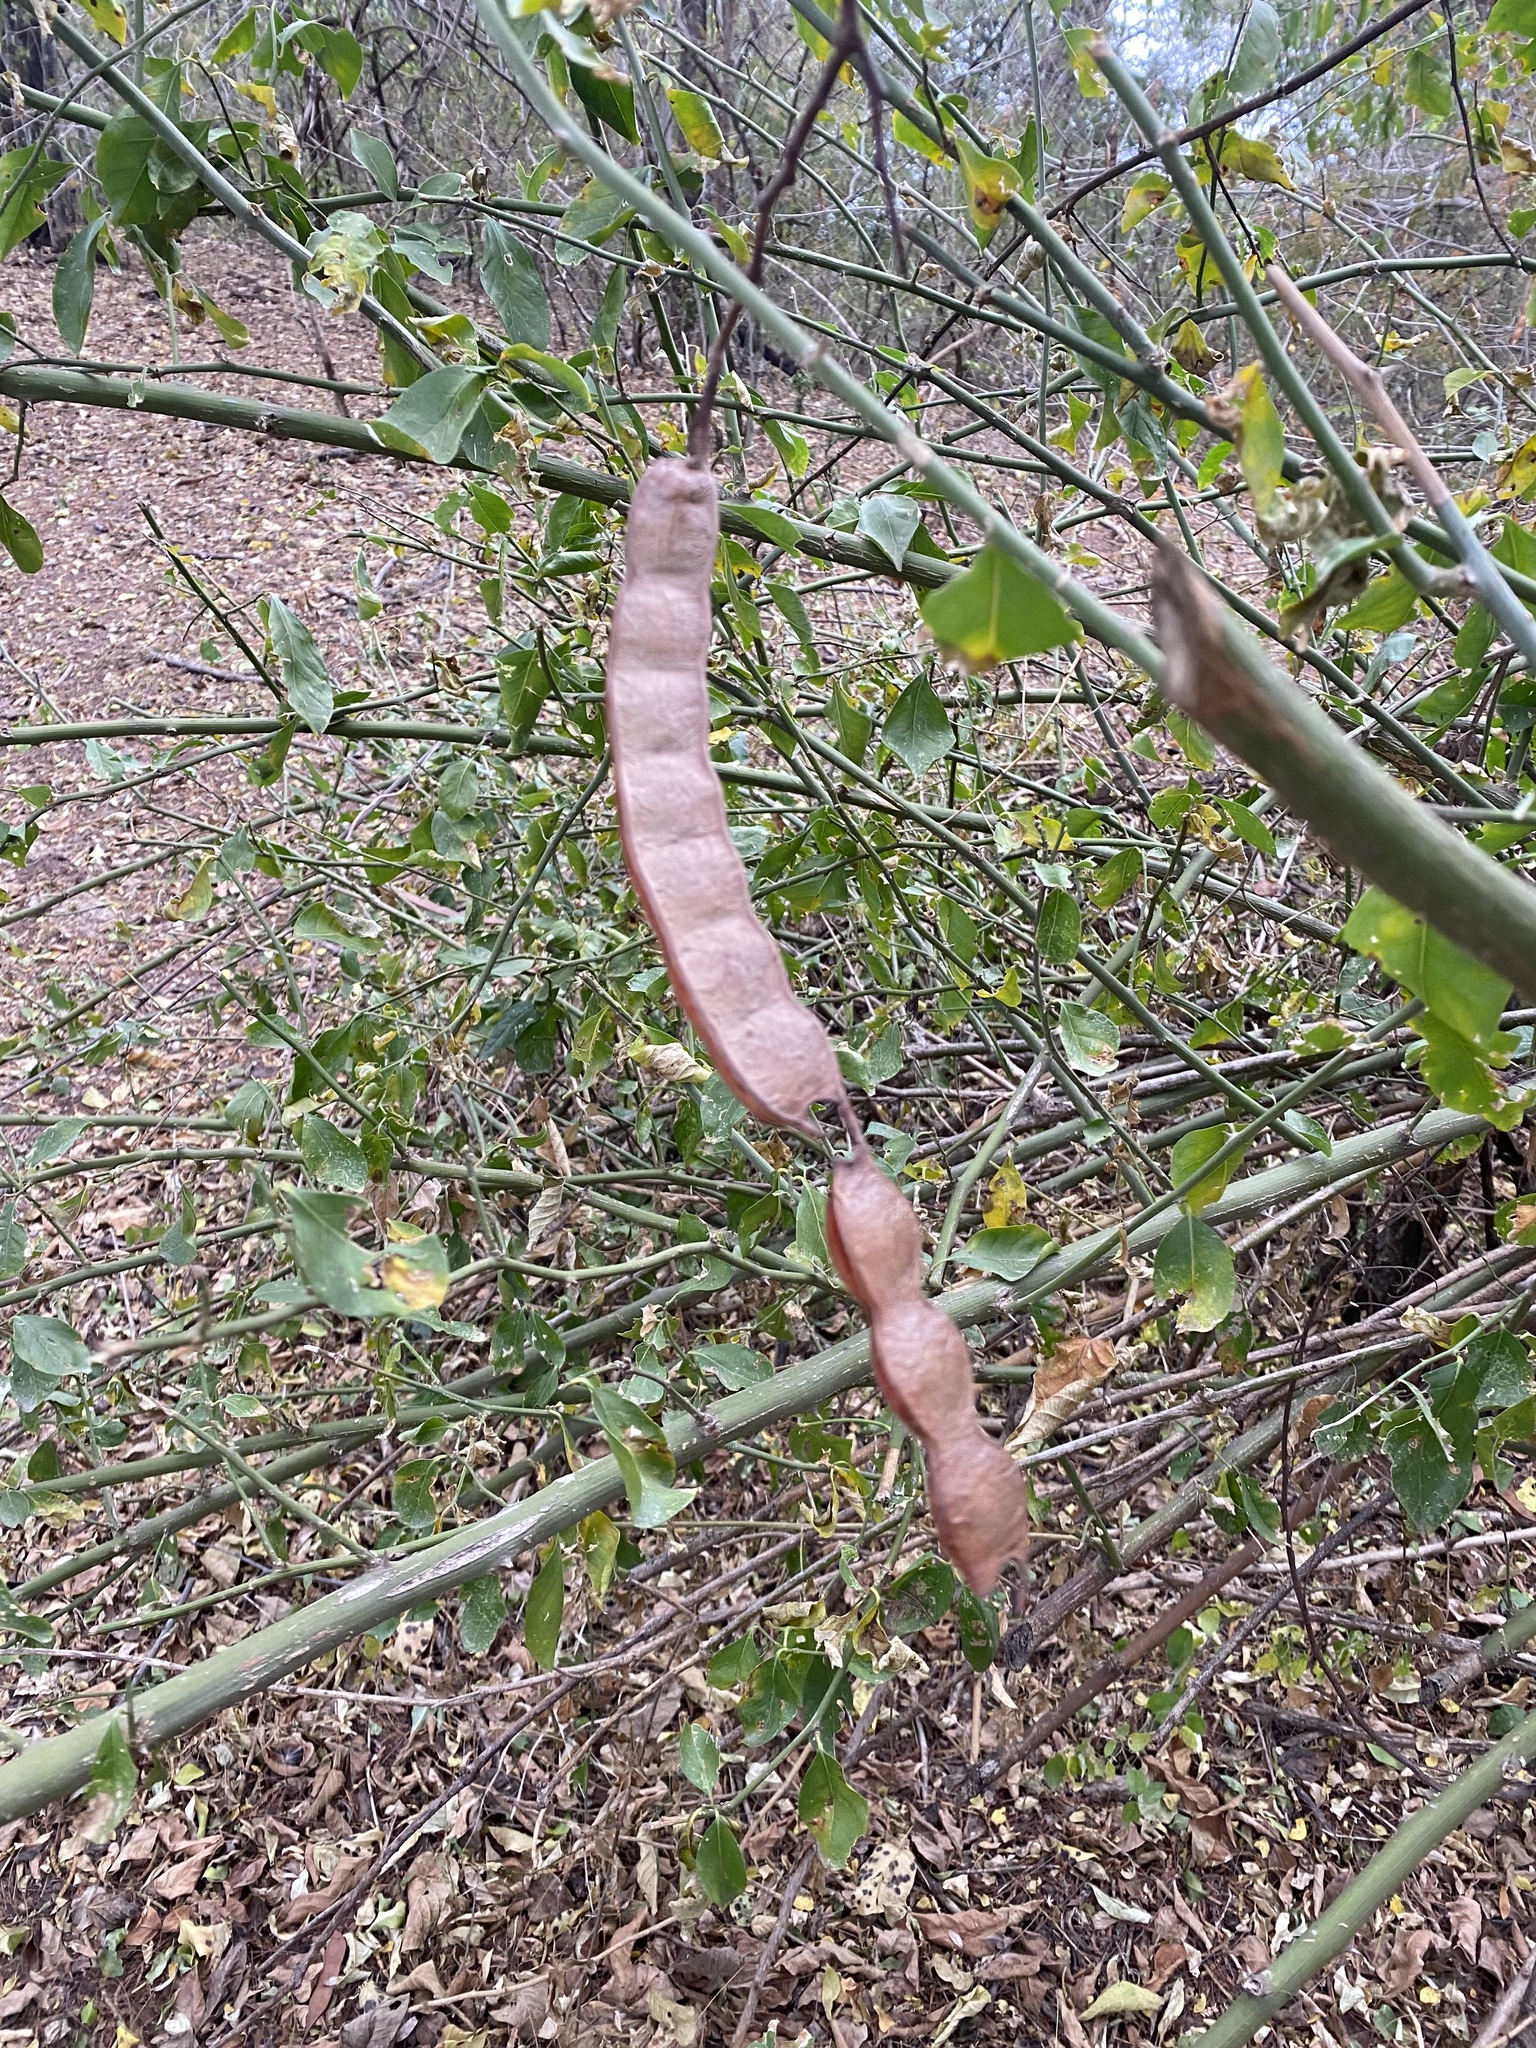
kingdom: Plantae
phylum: Tracheophyta
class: Magnoliopsida
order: Fabales
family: Fabaceae
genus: Anadenanthera
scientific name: Anadenanthera colubrina
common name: Curupay
